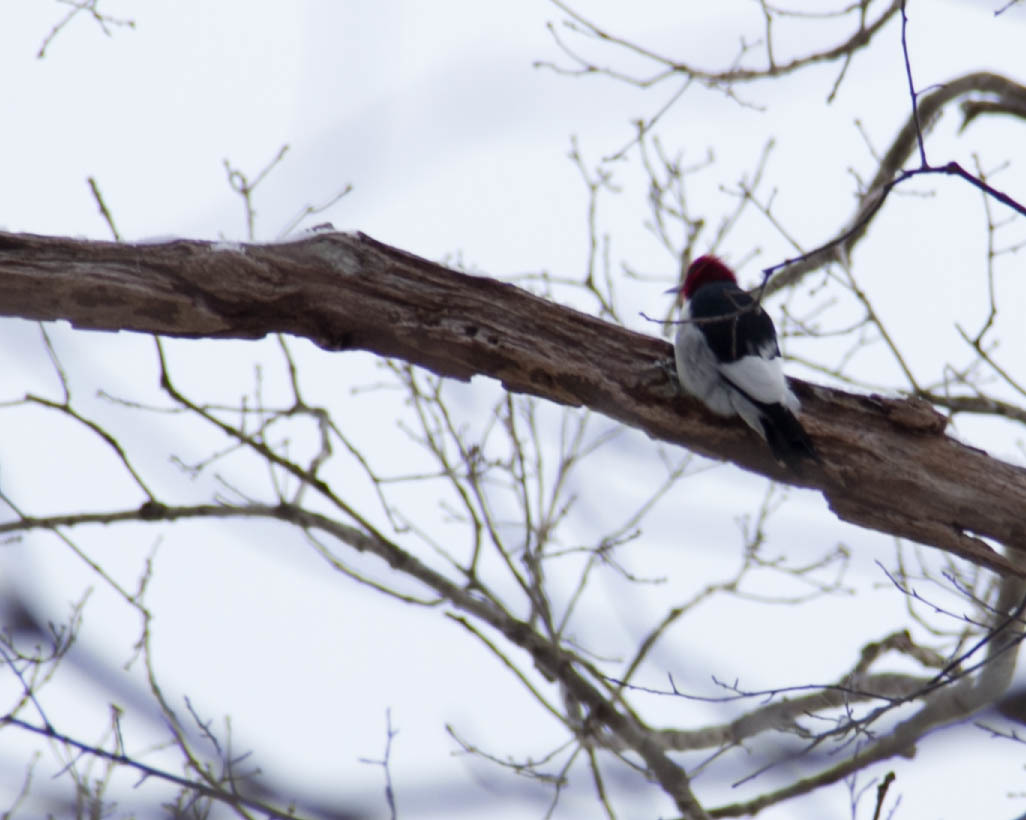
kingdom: Animalia
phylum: Chordata
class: Aves
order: Piciformes
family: Picidae
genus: Melanerpes
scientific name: Melanerpes erythrocephalus
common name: Red-headed woodpecker
